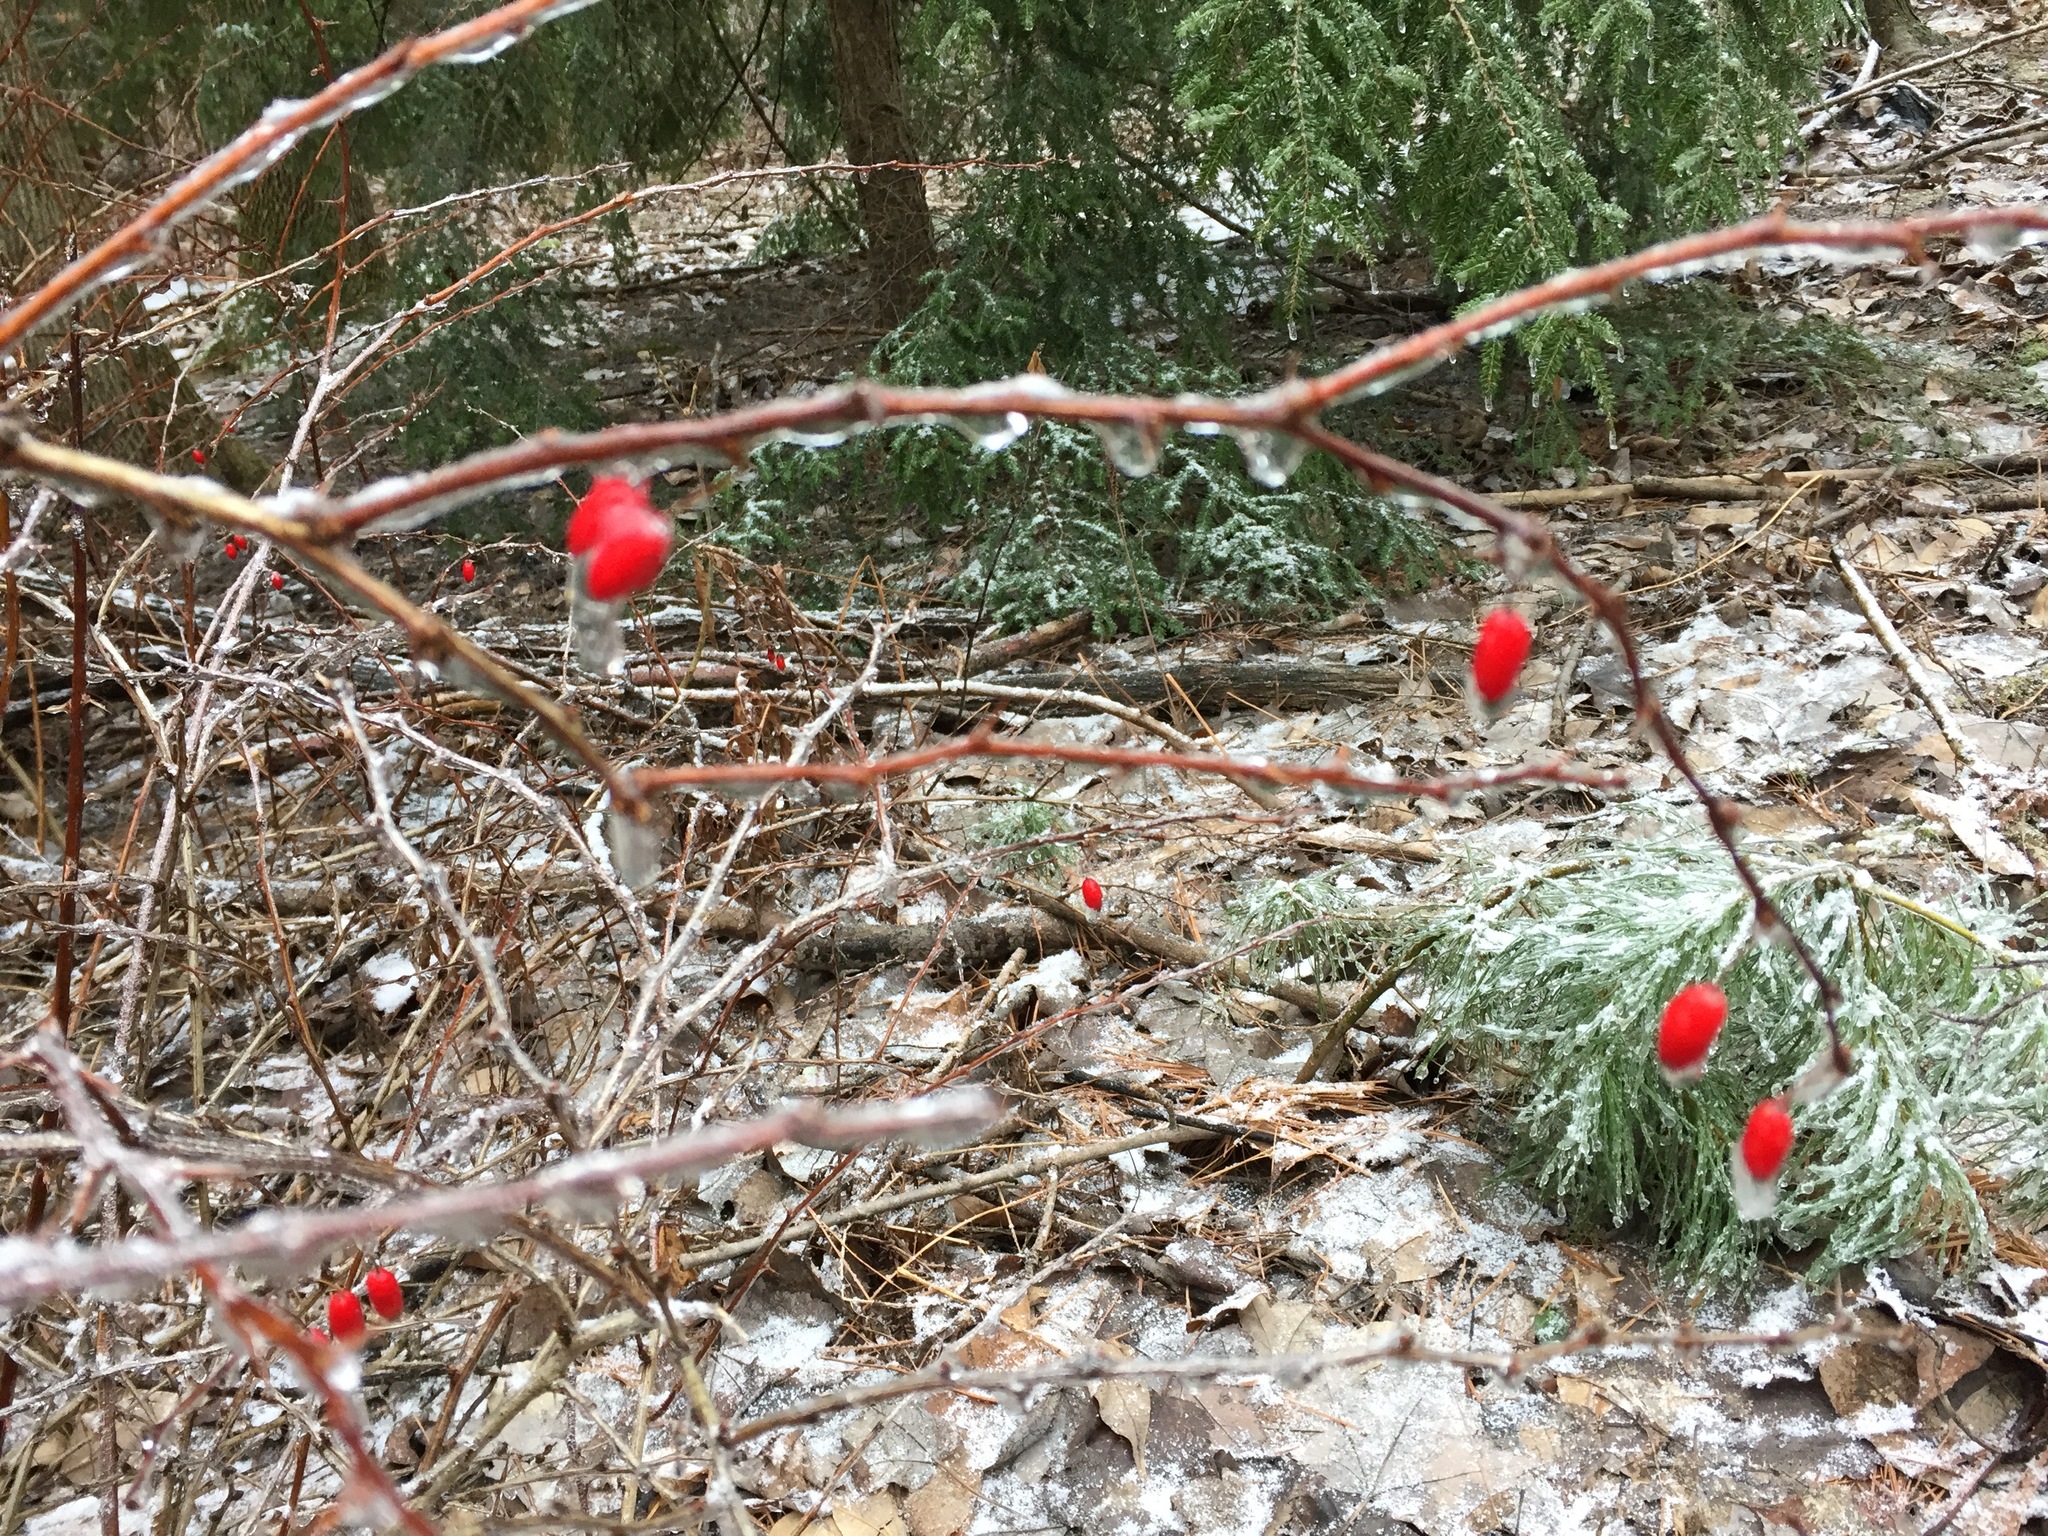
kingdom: Plantae
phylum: Tracheophyta
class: Magnoliopsida
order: Ranunculales
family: Berberidaceae
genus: Berberis
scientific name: Berberis thunbergii
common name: Japanese barberry
